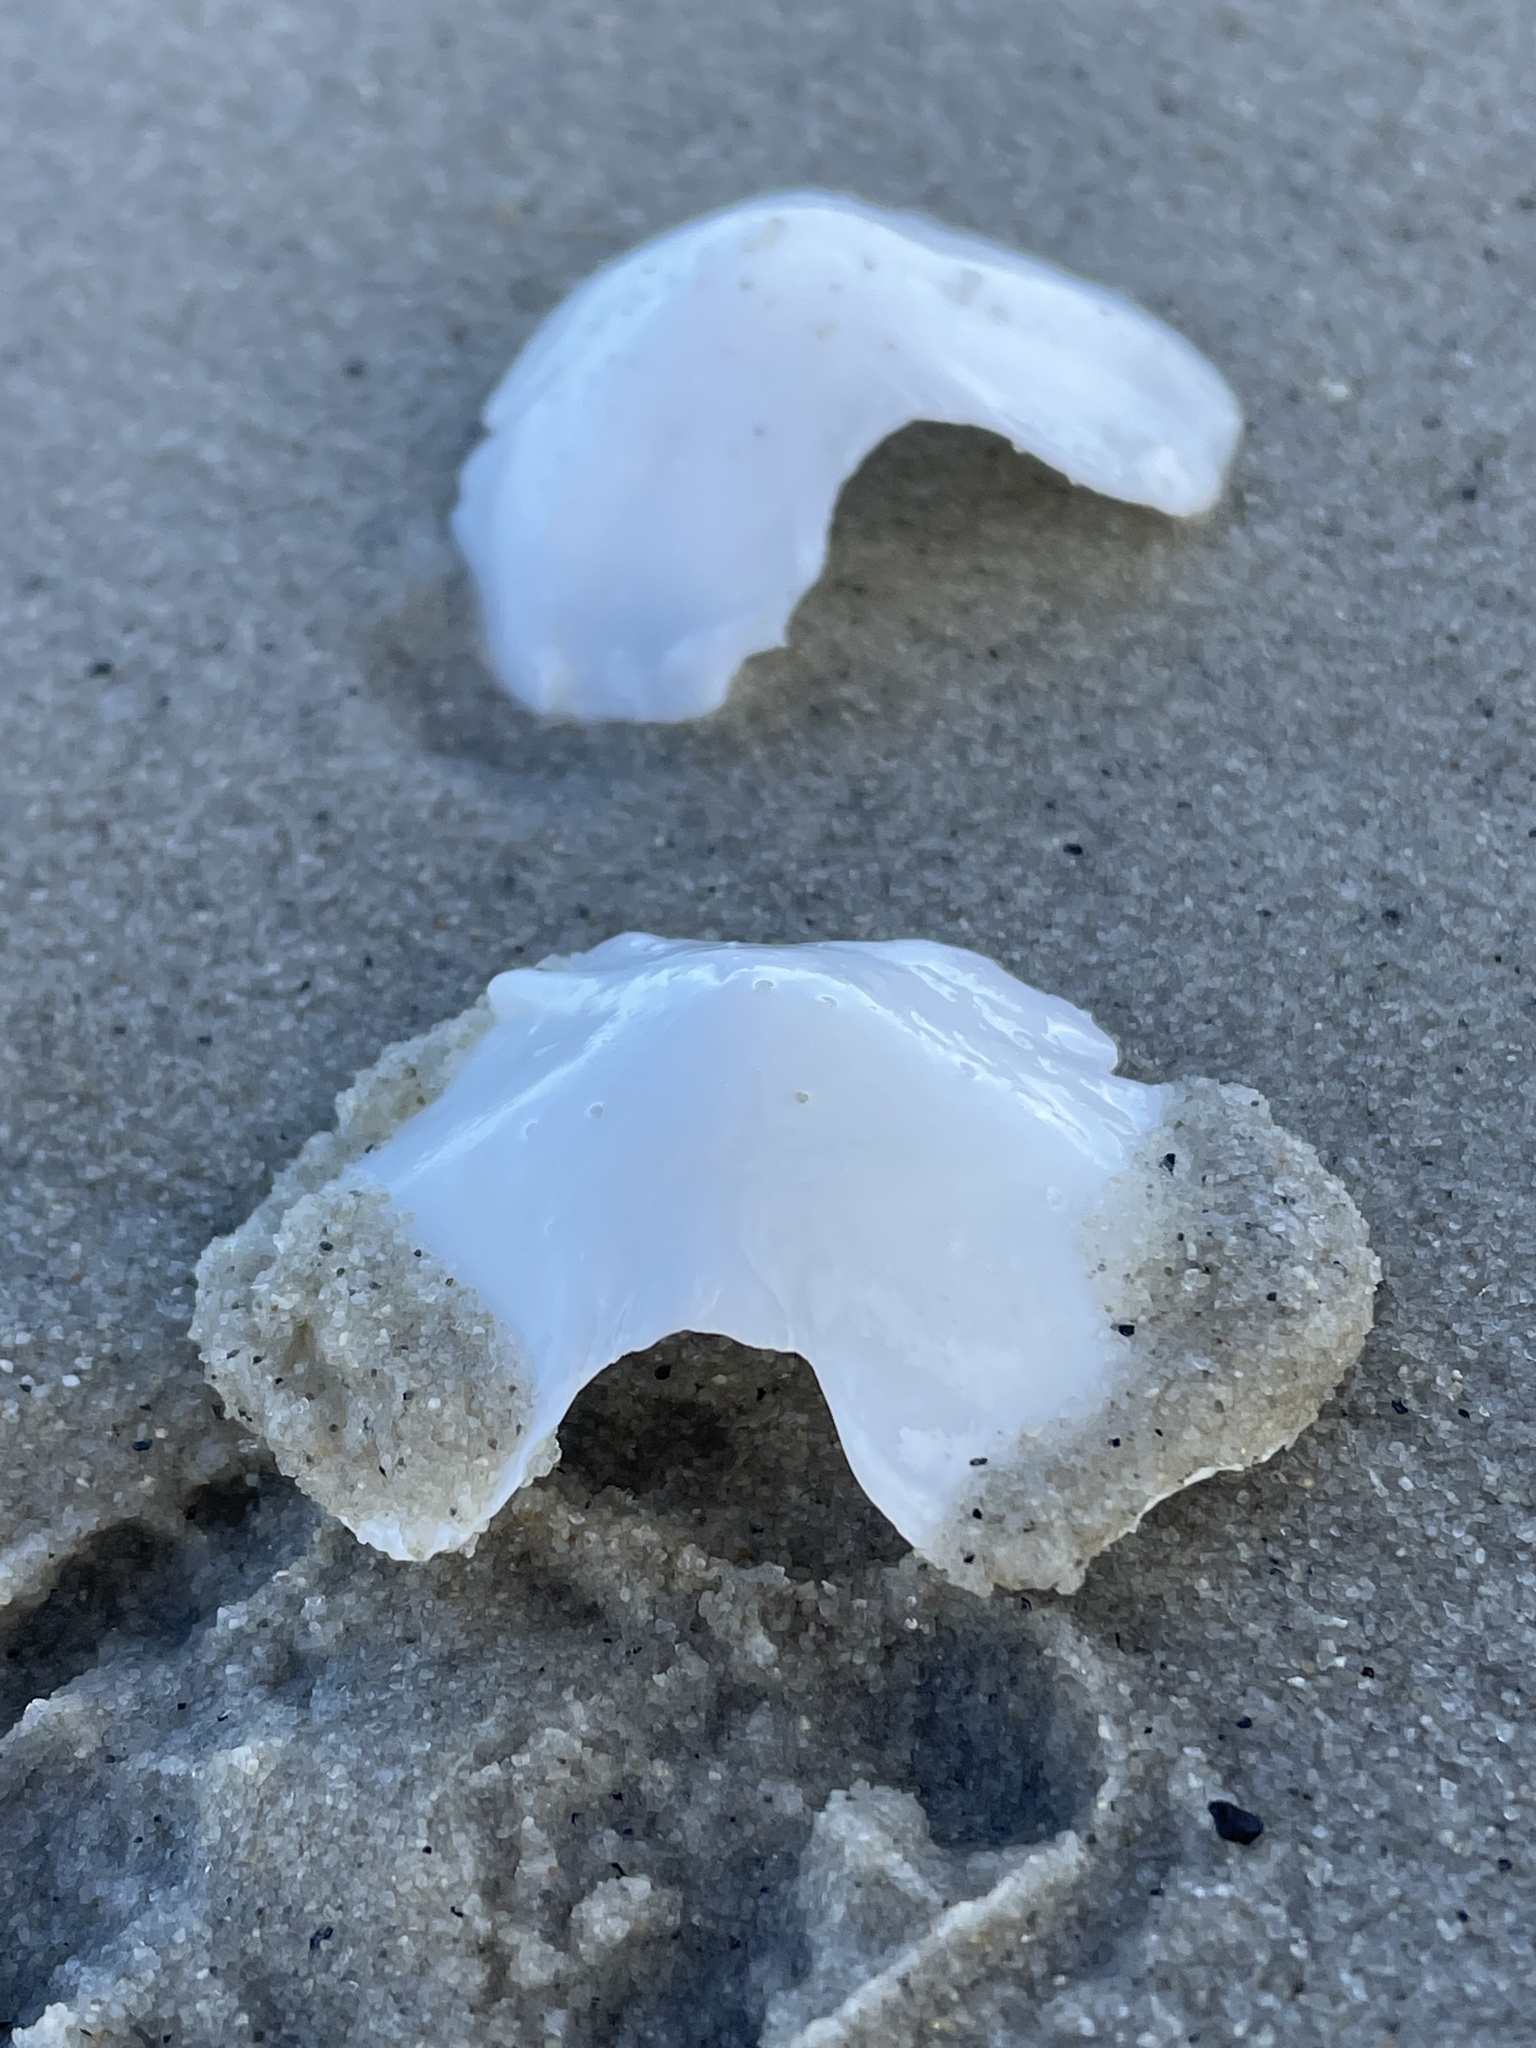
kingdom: Animalia
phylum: Mollusca
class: Polyplacophora
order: Chitonida
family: Acanthochitonidae
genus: Cryptochiton
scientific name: Cryptochiton stelleri
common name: Giant pacific chiton
